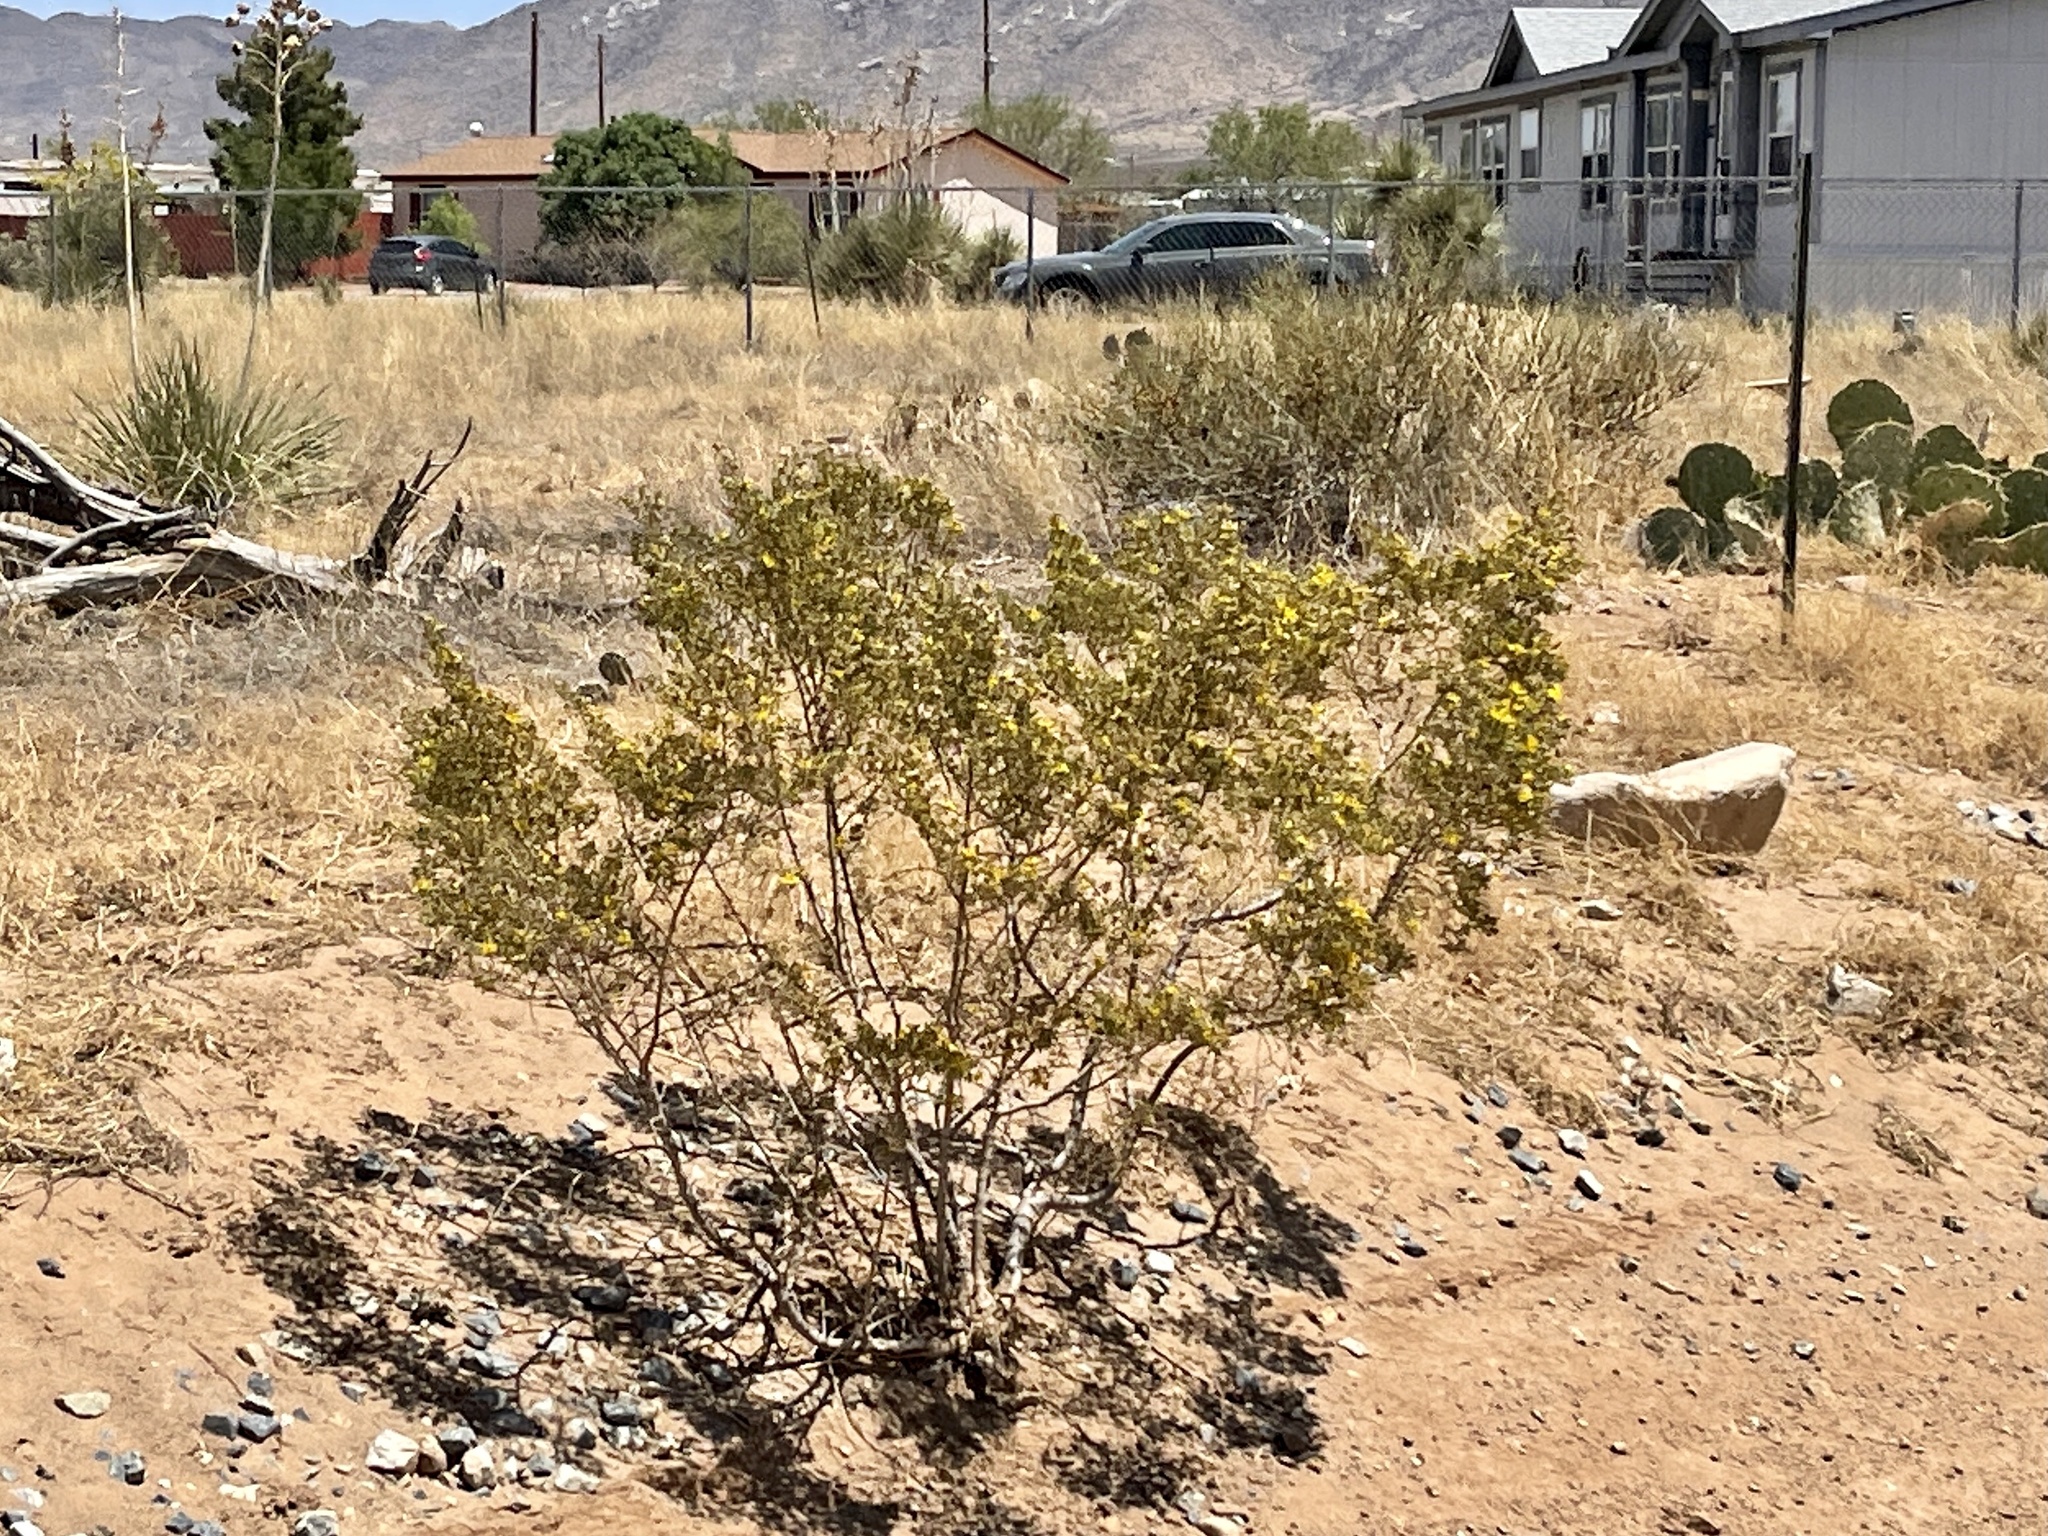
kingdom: Plantae
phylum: Tracheophyta
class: Magnoliopsida
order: Zygophyllales
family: Zygophyllaceae
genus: Larrea
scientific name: Larrea tridentata
